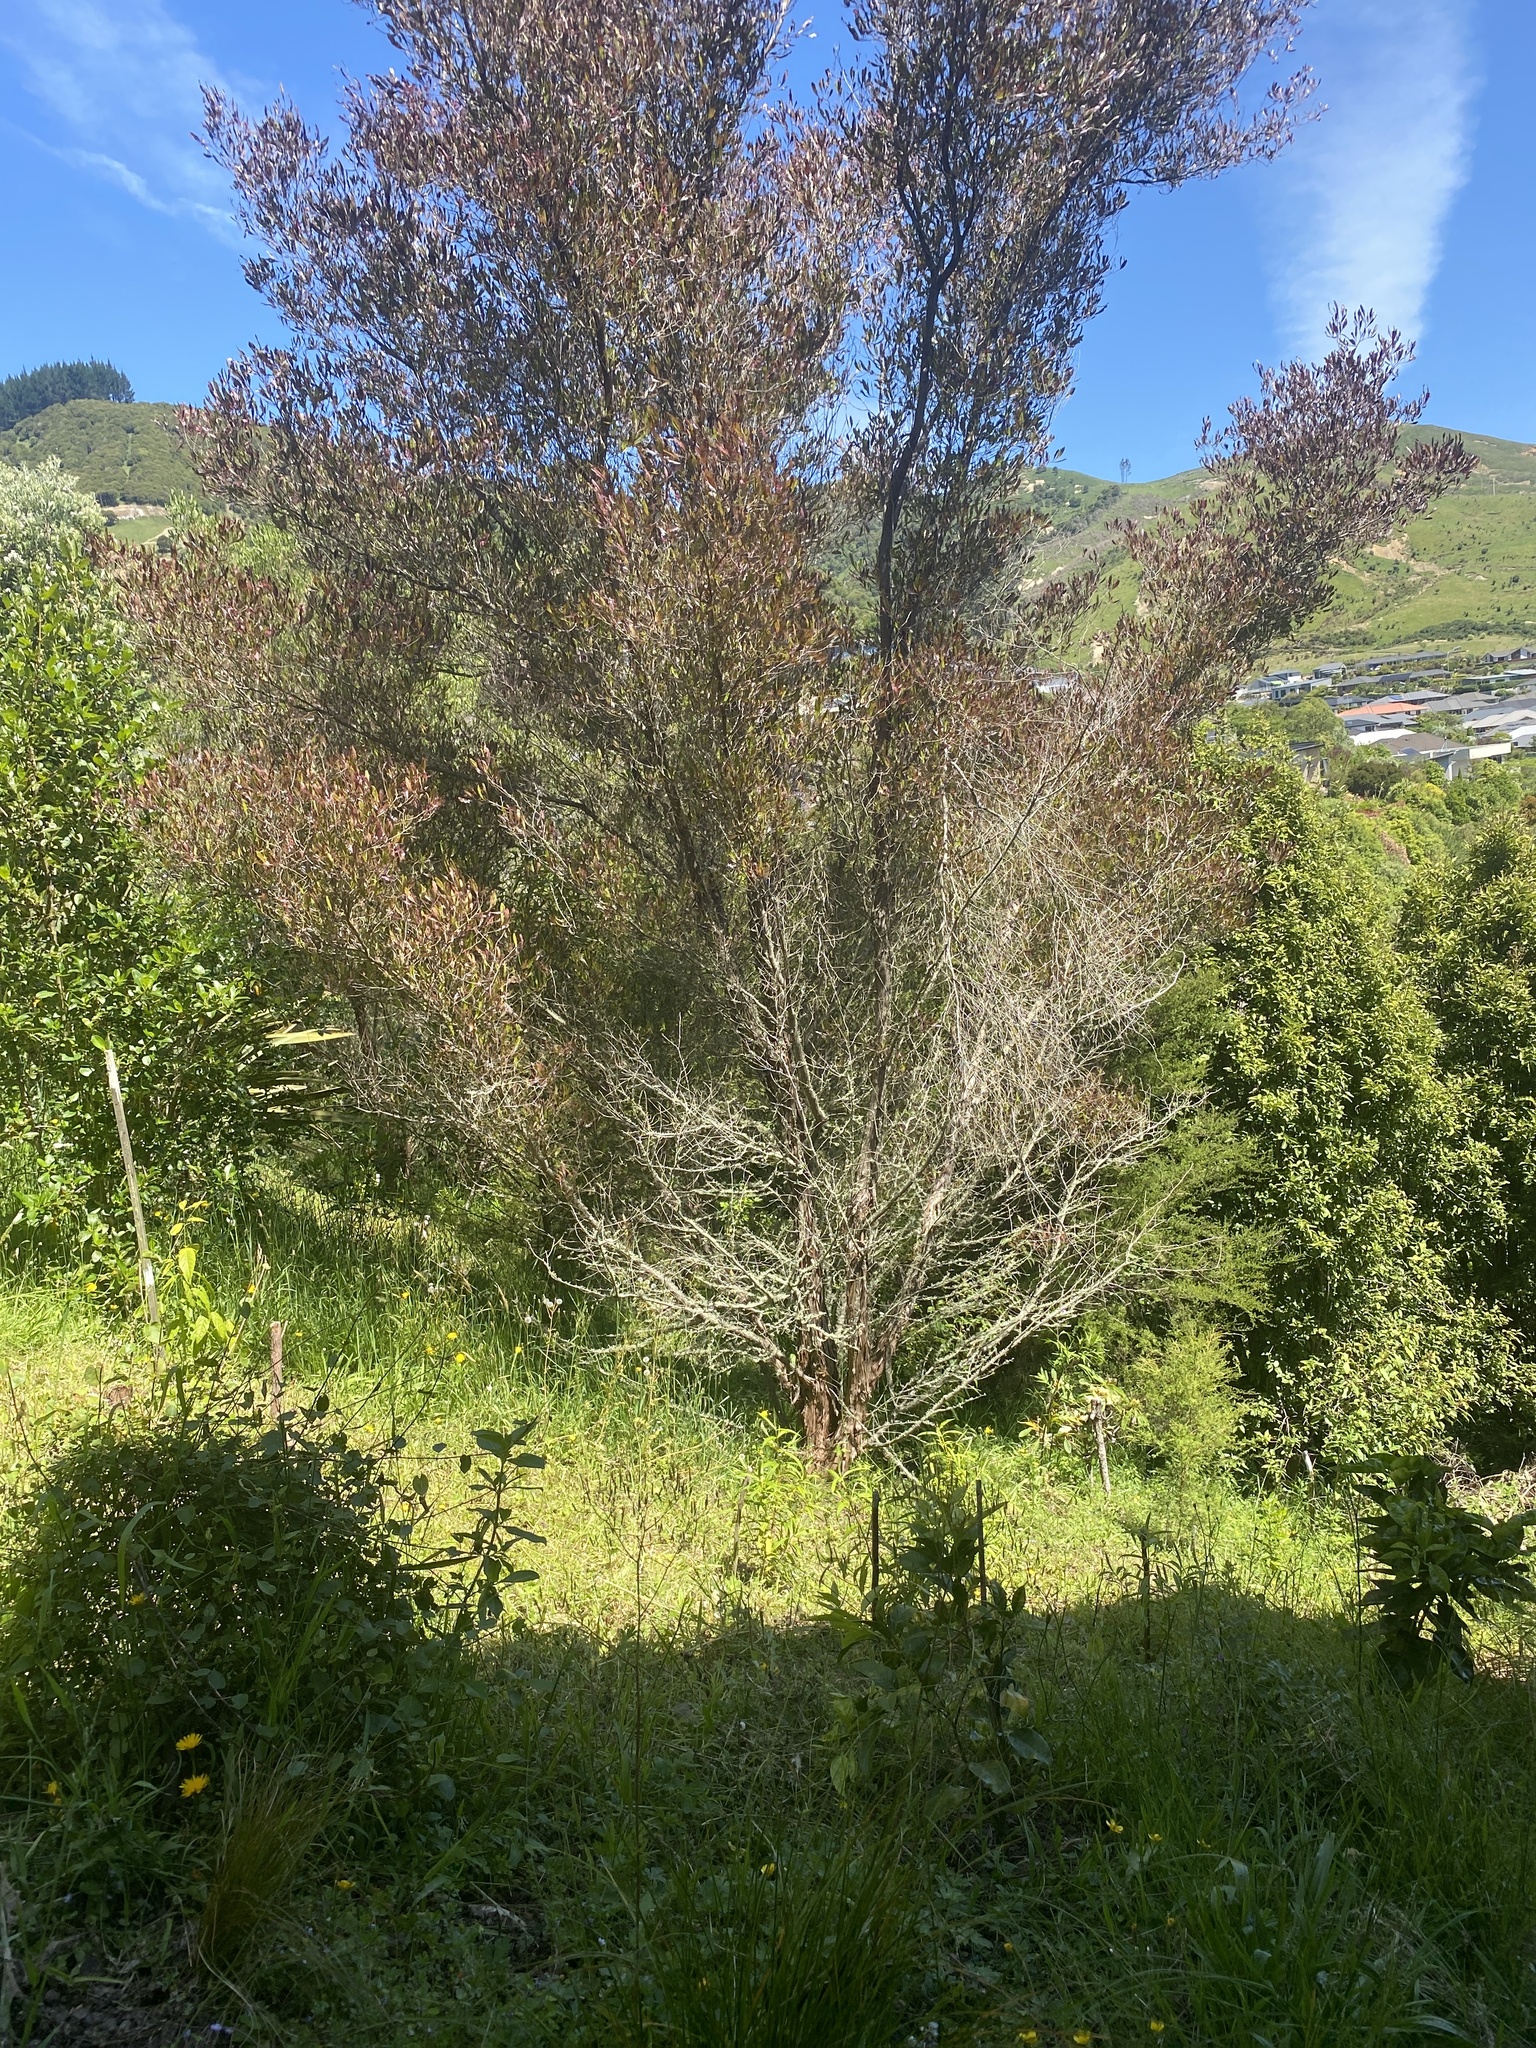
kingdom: Plantae
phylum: Tracheophyta
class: Magnoliopsida
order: Sapindales
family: Sapindaceae
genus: Dodonaea
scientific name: Dodonaea viscosa
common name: Hopbush
